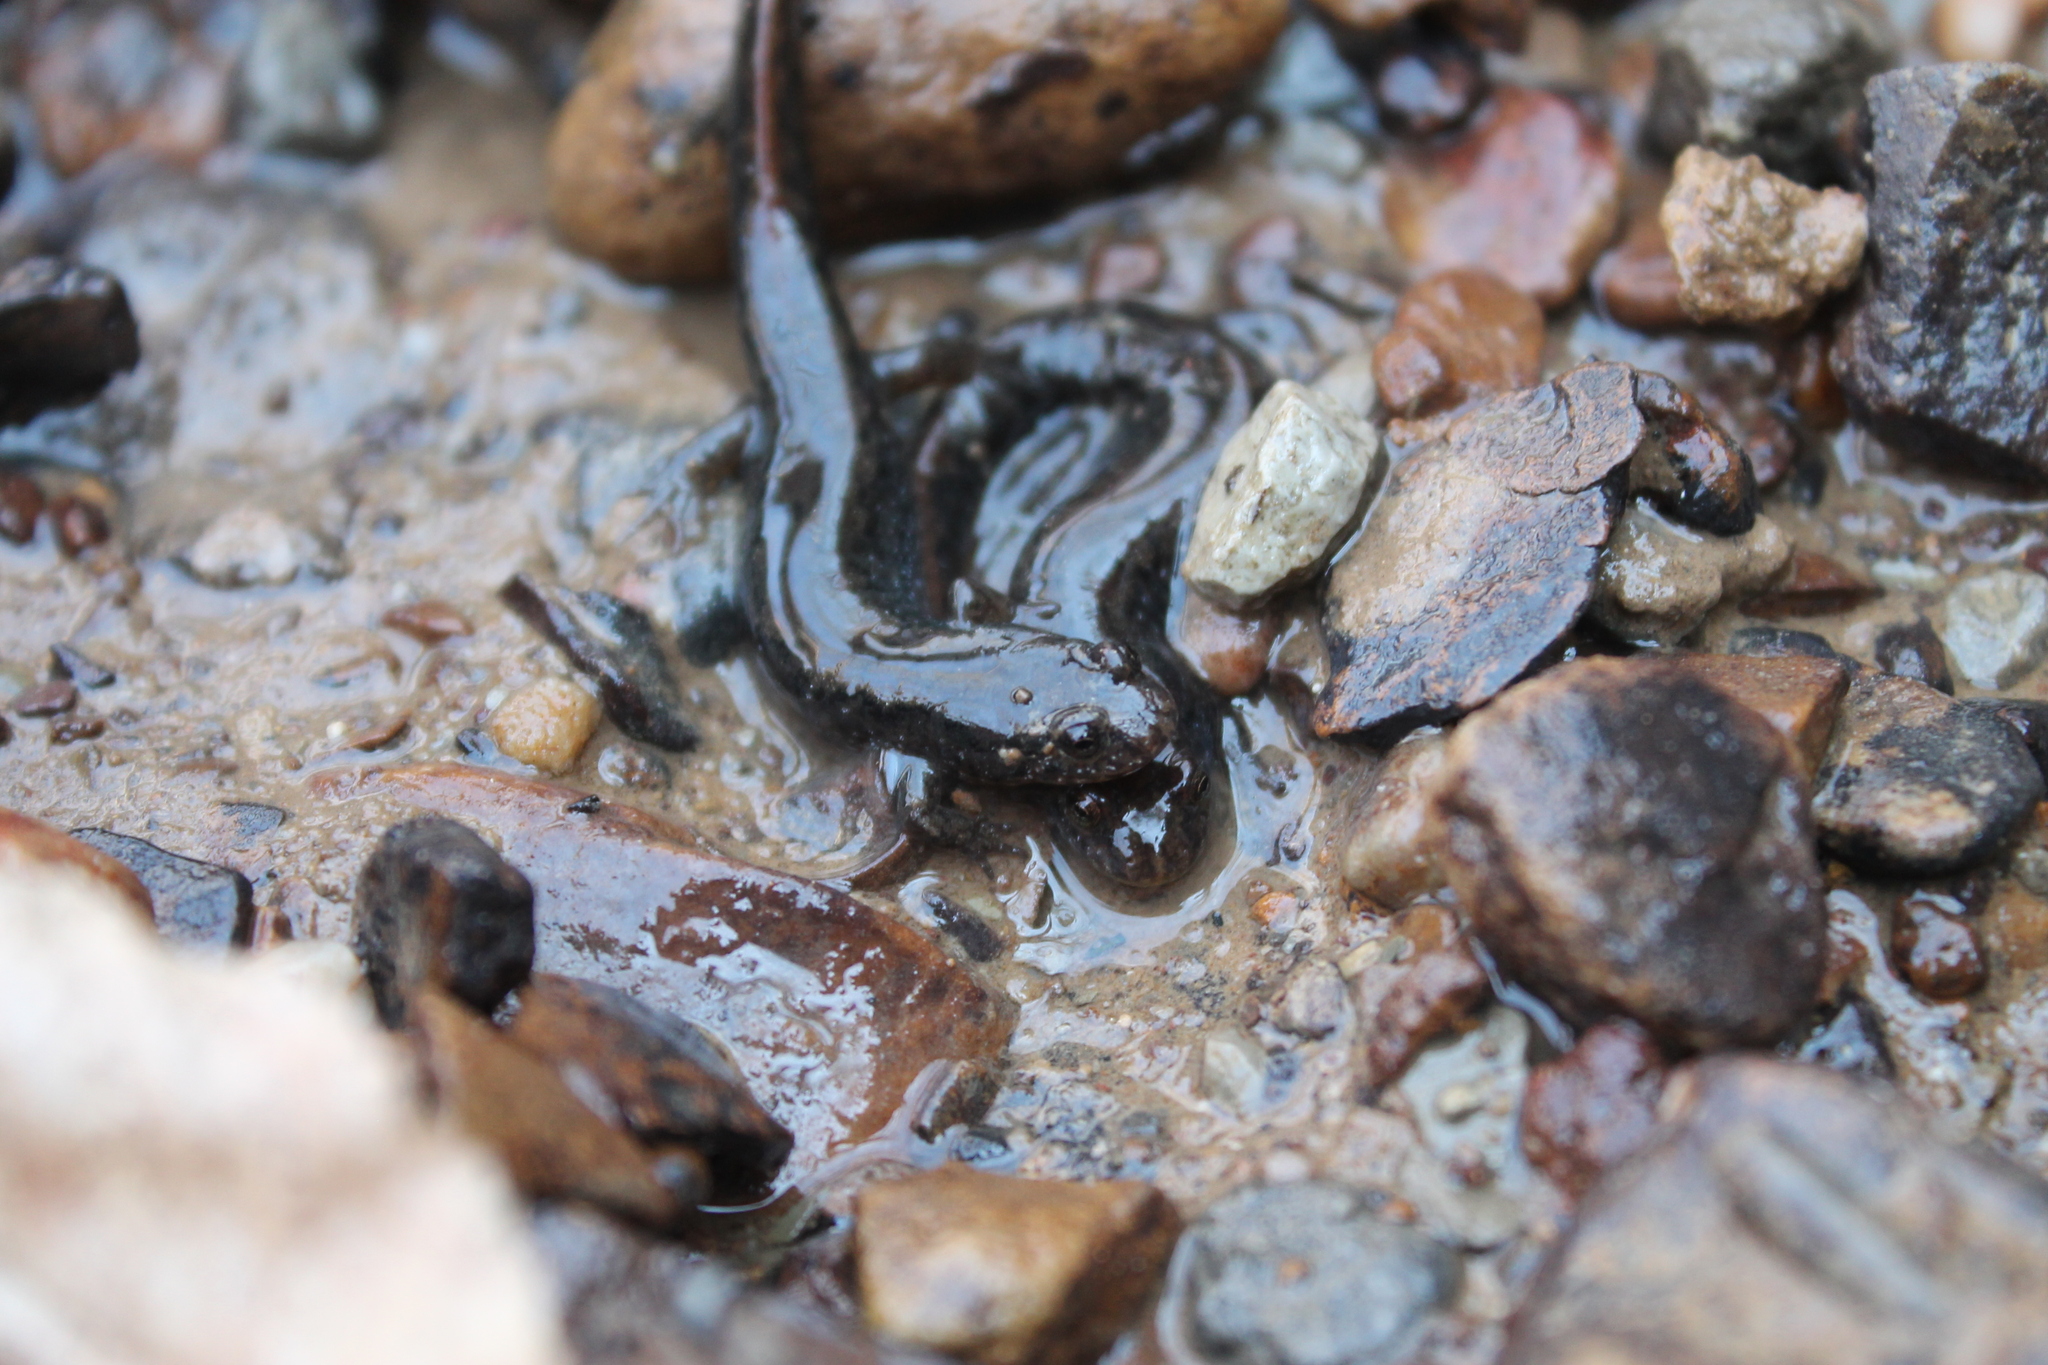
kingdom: Animalia
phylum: Chordata
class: Amphibia
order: Caudata
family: Plethodontidae
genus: Desmognathus
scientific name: Desmognathus fuscus
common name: Northern dusky salamander
